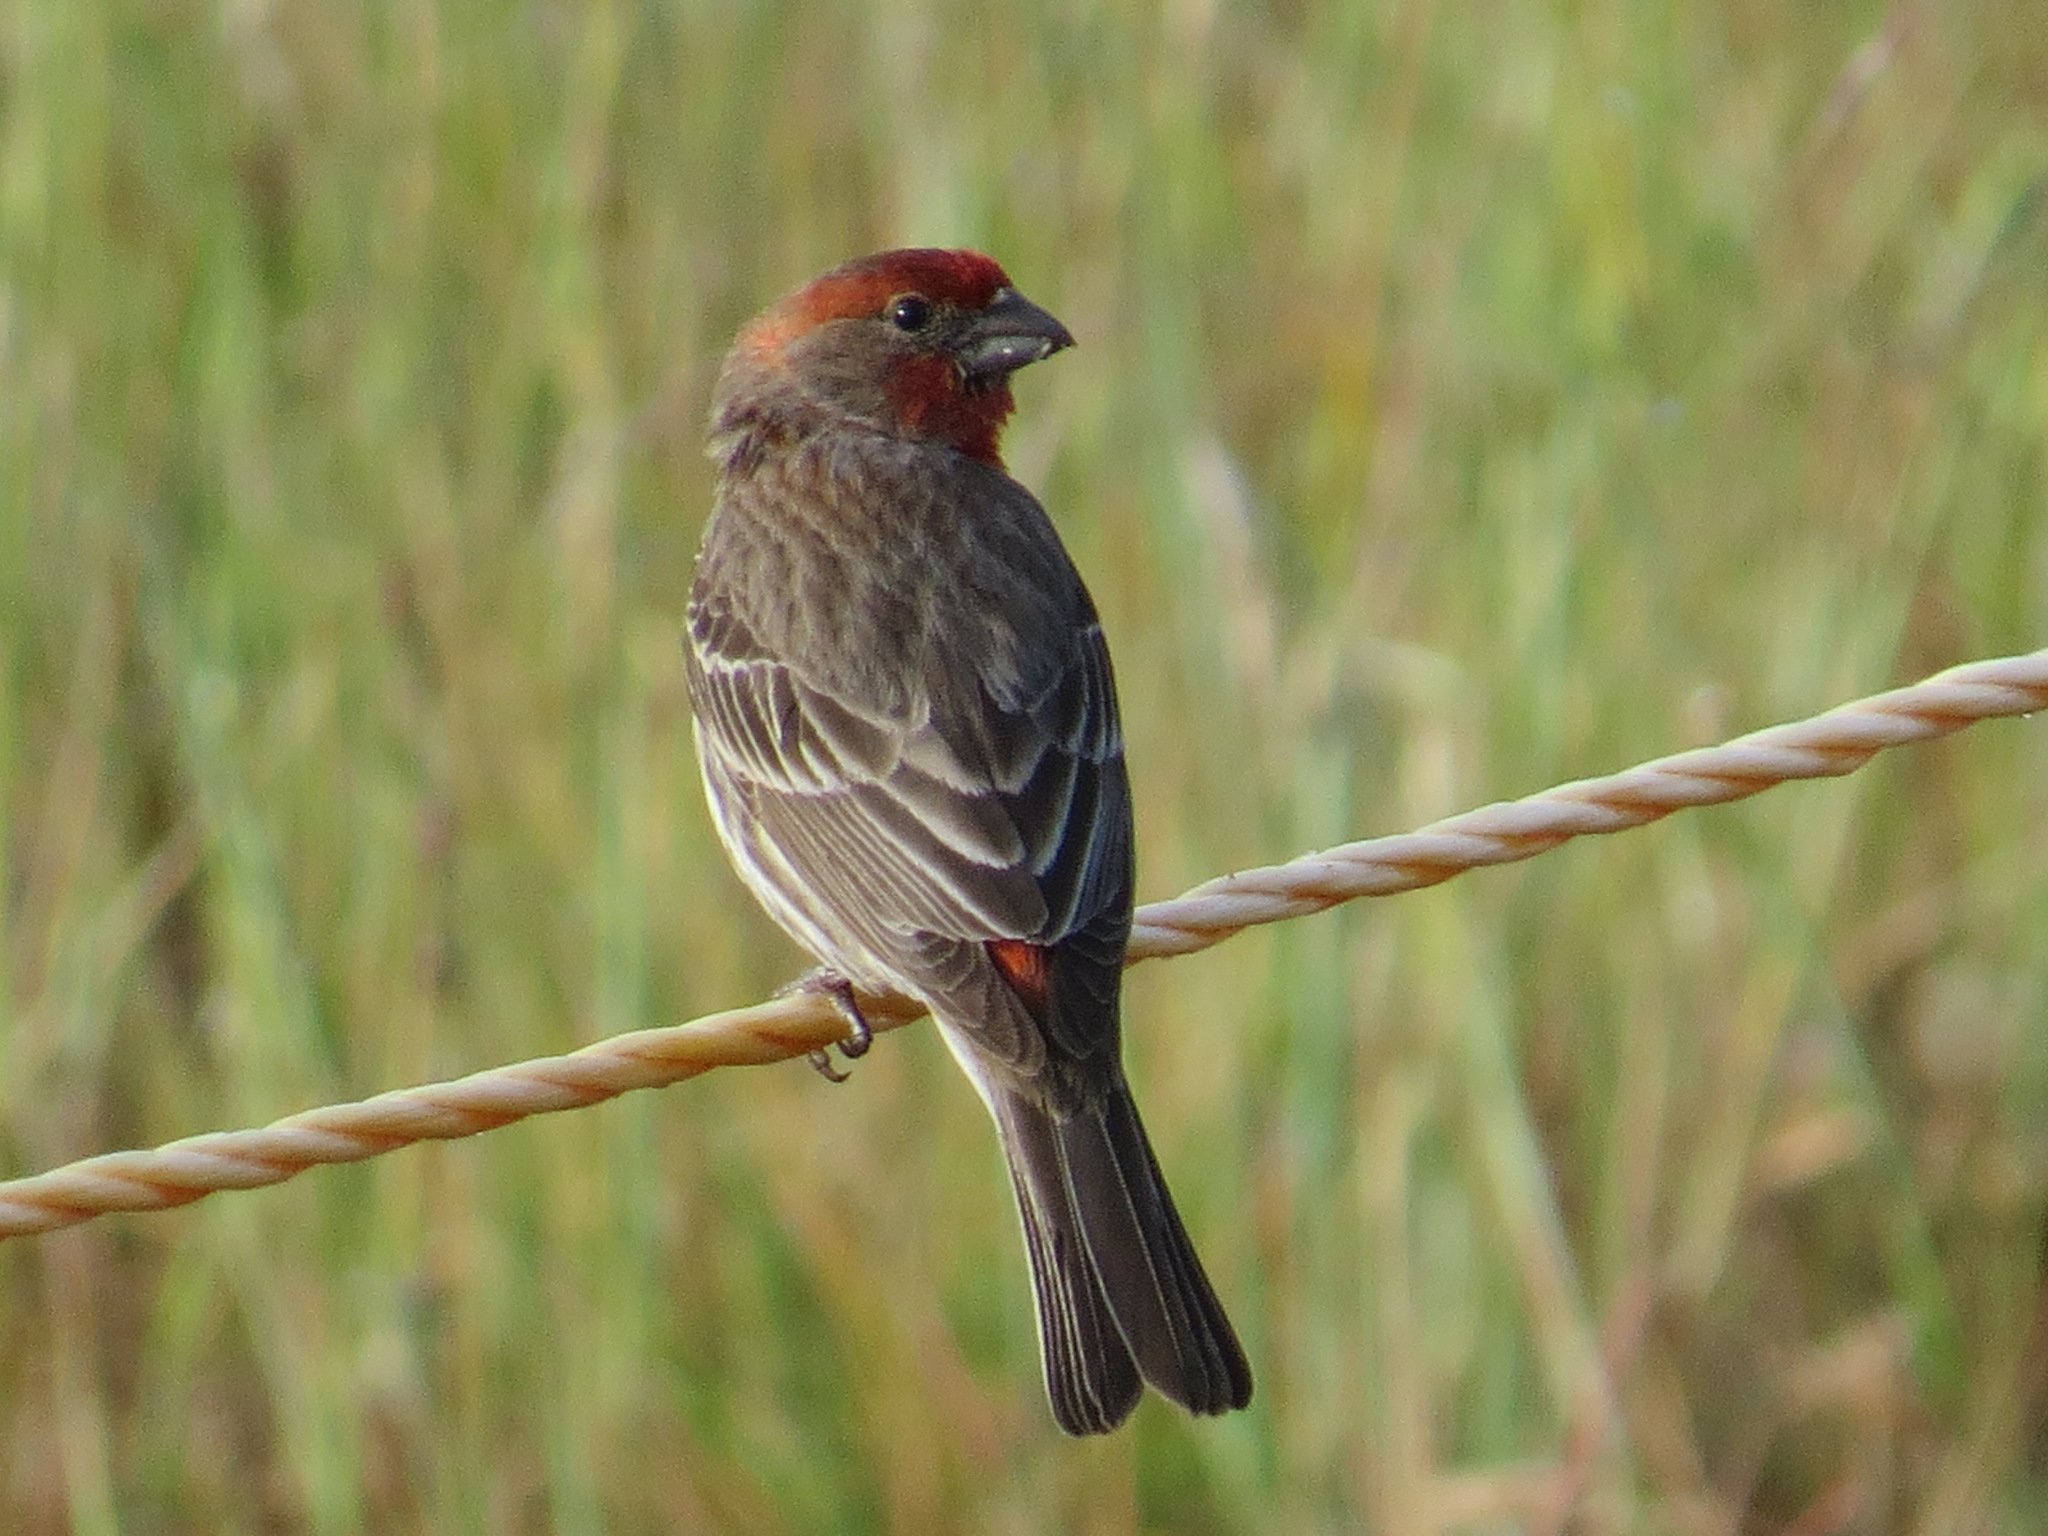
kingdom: Animalia
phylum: Chordata
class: Aves
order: Passeriformes
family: Fringillidae
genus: Haemorhous
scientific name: Haemorhous mexicanus
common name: House finch
